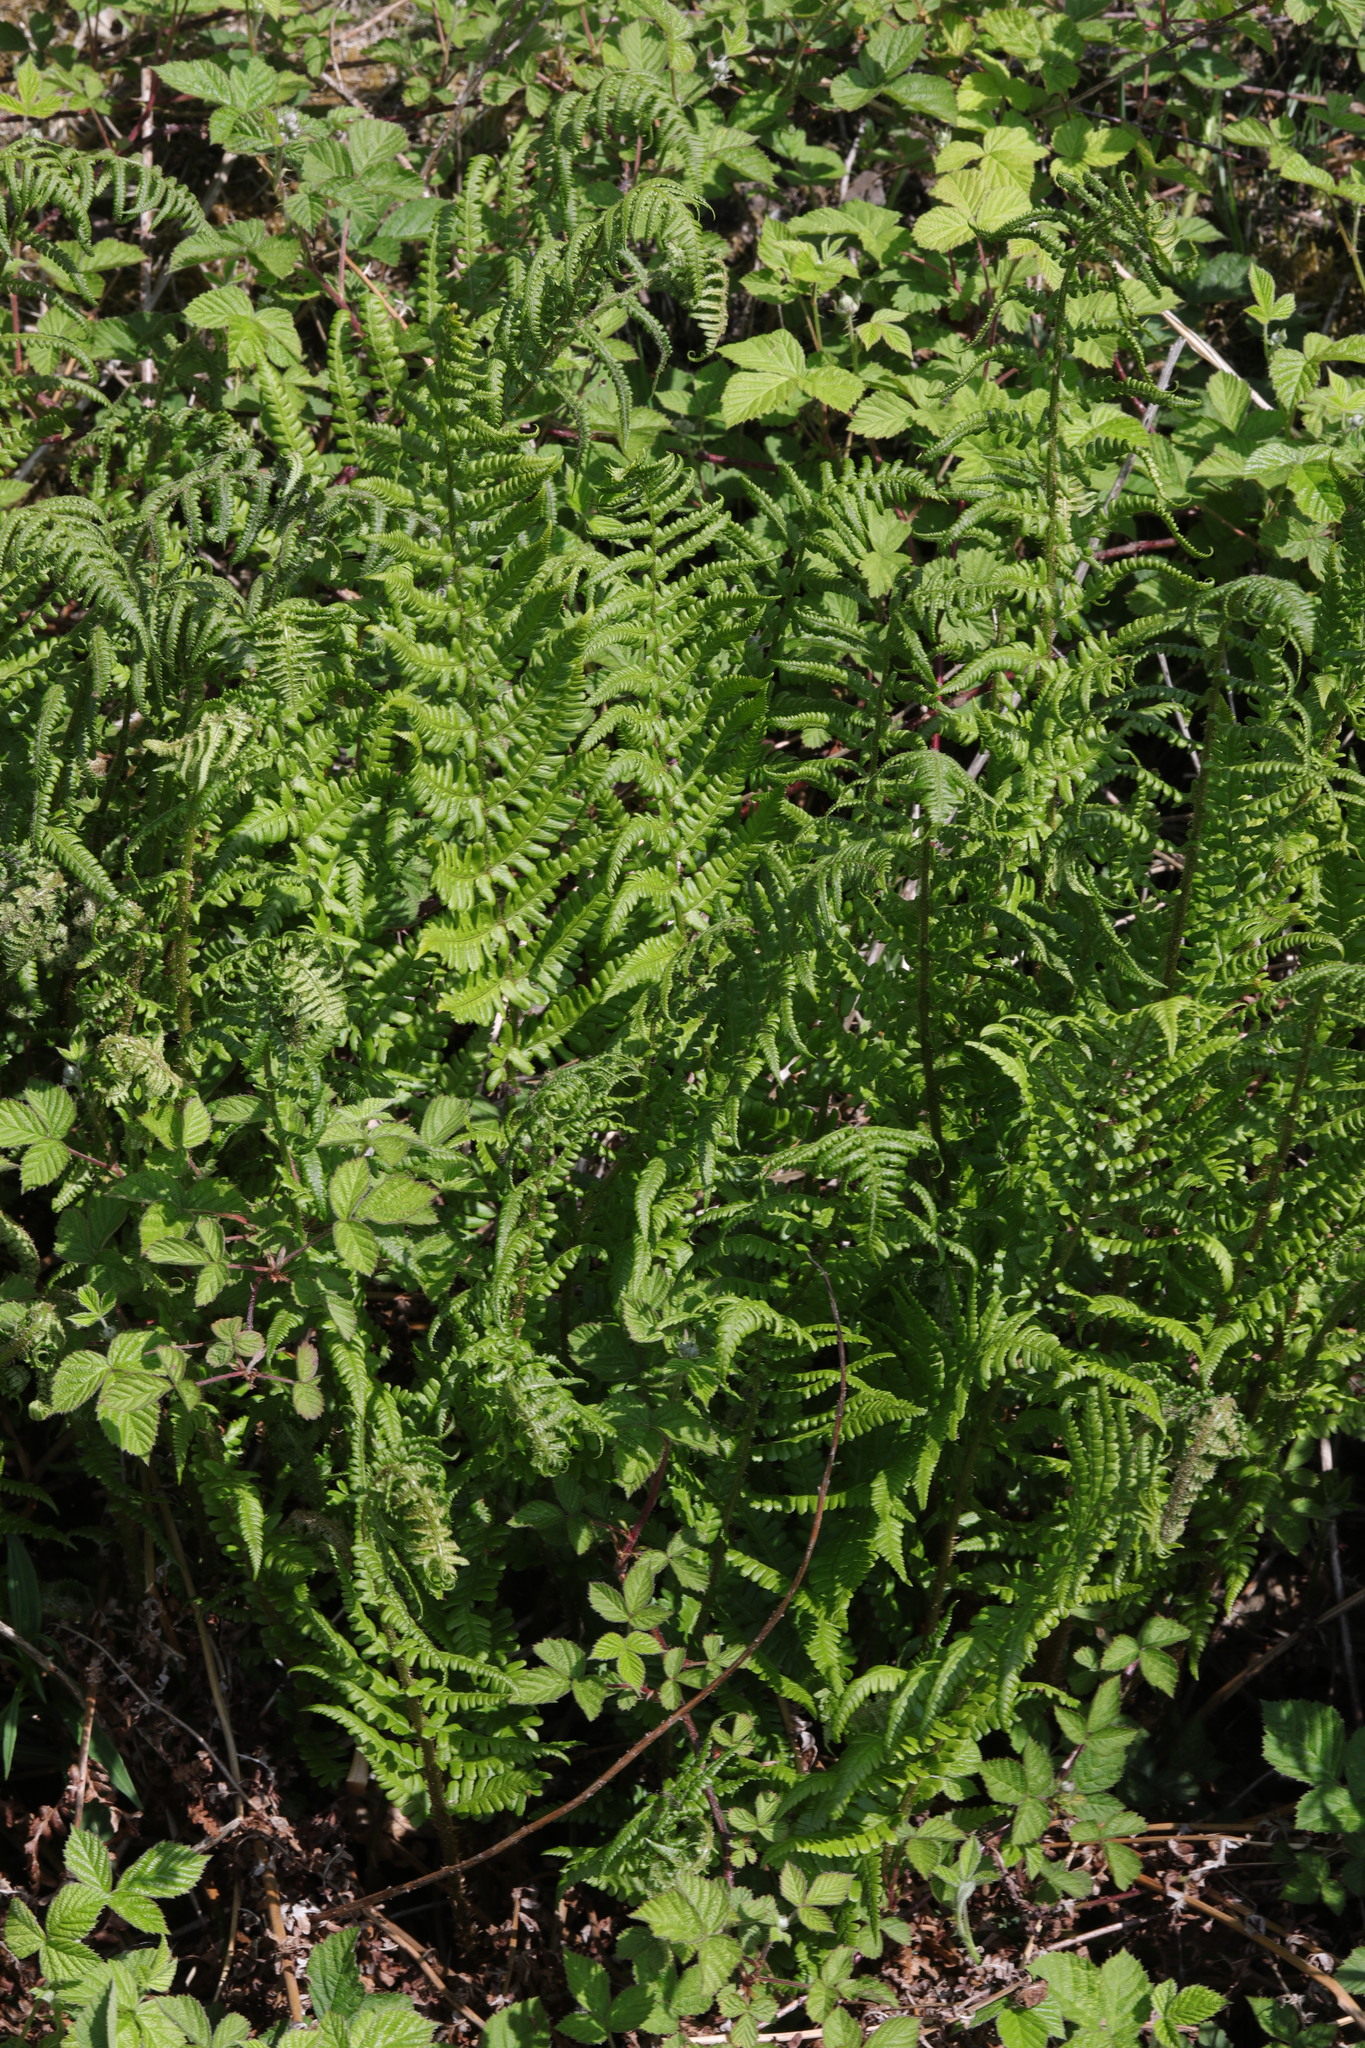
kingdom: Plantae
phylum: Tracheophyta
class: Polypodiopsida
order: Polypodiales
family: Dryopteridaceae
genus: Dryopteris
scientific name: Dryopteris filix-mas
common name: Male fern
